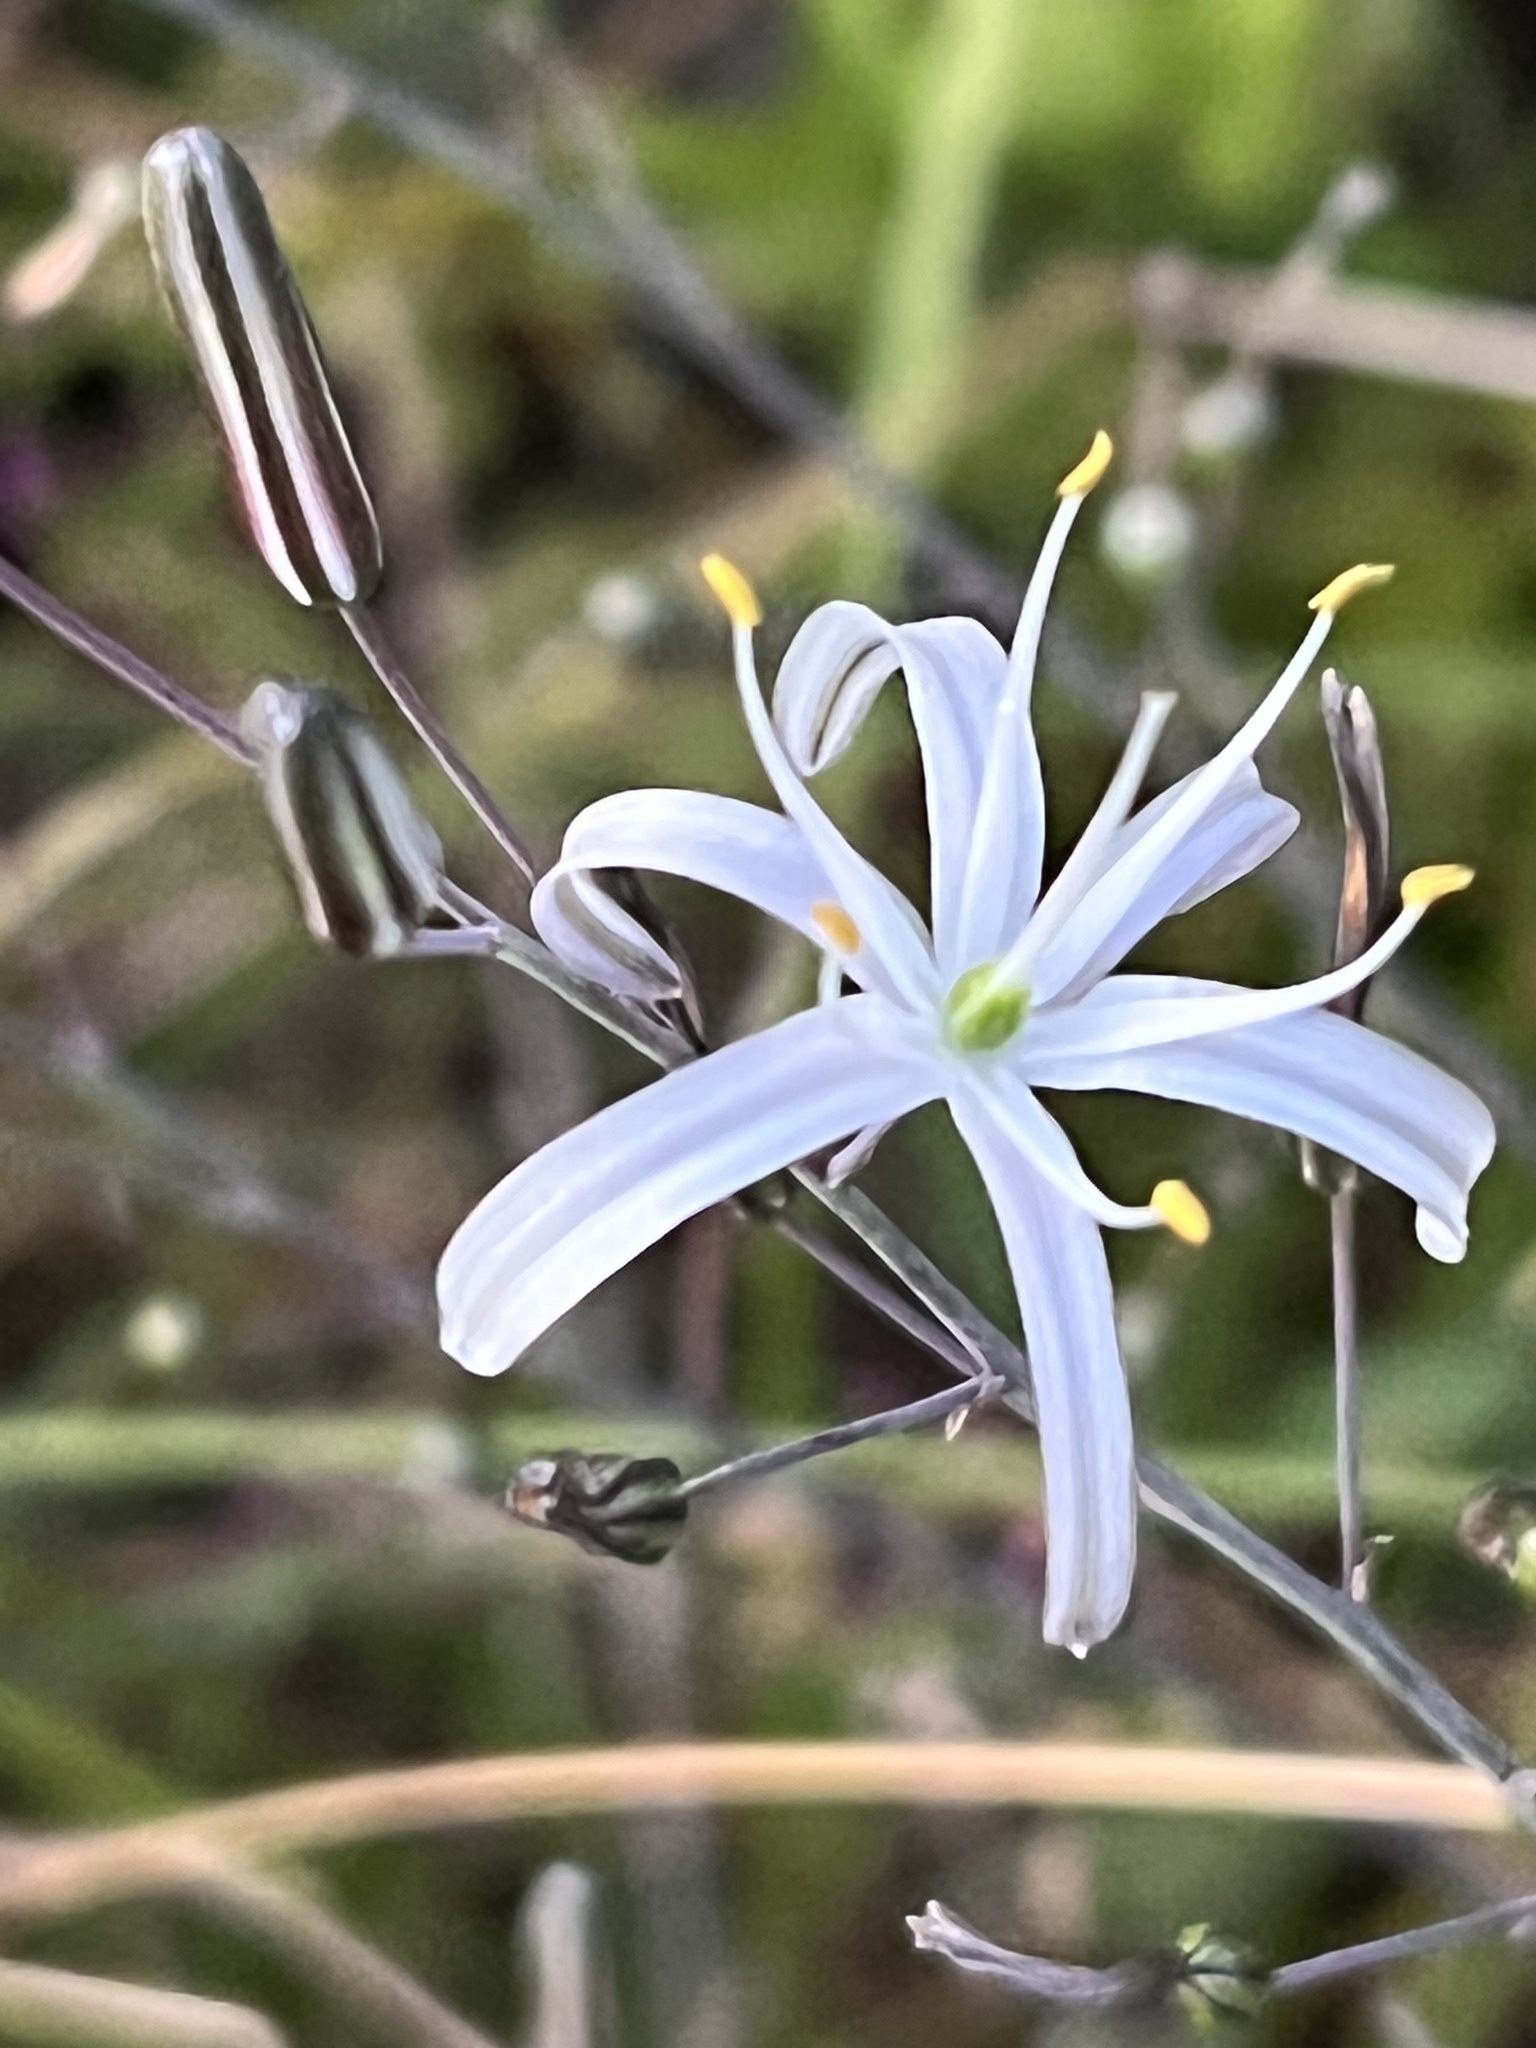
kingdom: Plantae
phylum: Tracheophyta
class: Liliopsida
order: Asparagales
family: Asparagaceae
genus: Chlorogalum
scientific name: Chlorogalum pomeridianum
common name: Amole
